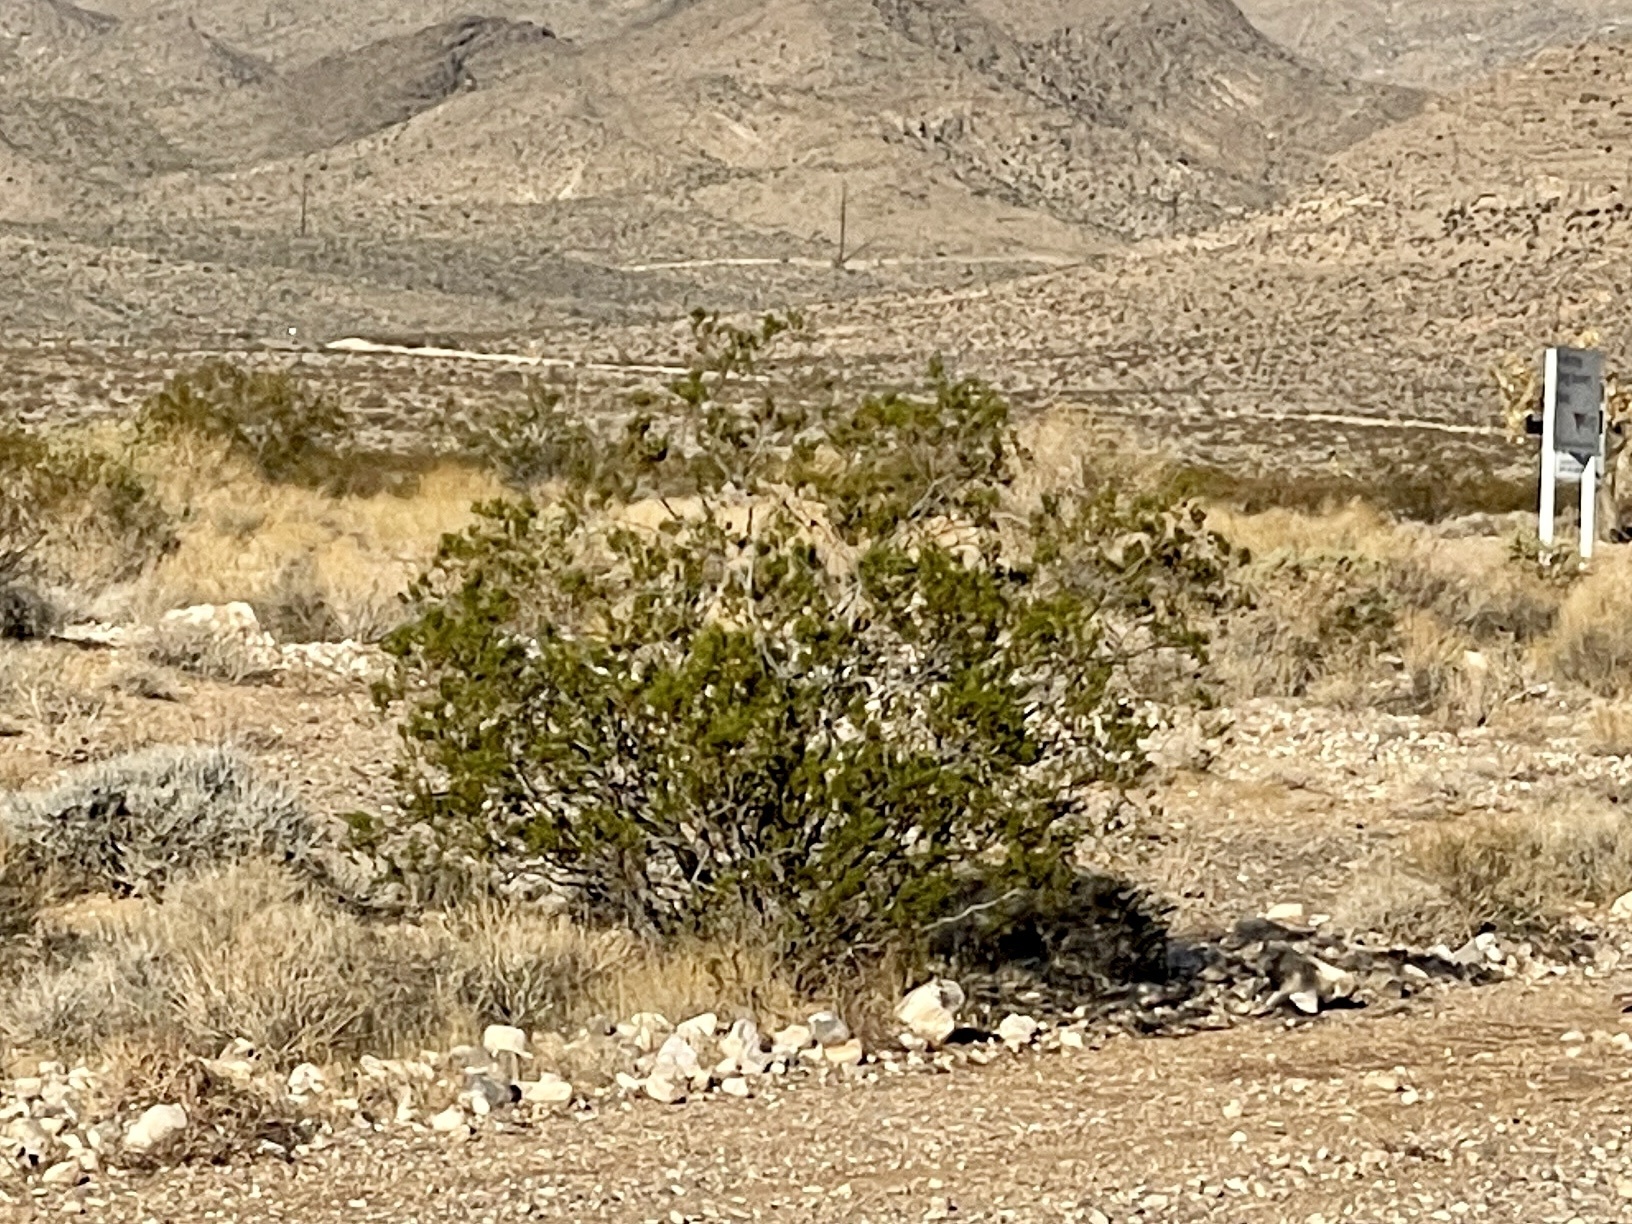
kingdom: Plantae
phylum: Tracheophyta
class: Magnoliopsida
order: Zygophyllales
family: Zygophyllaceae
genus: Larrea
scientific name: Larrea tridentata
